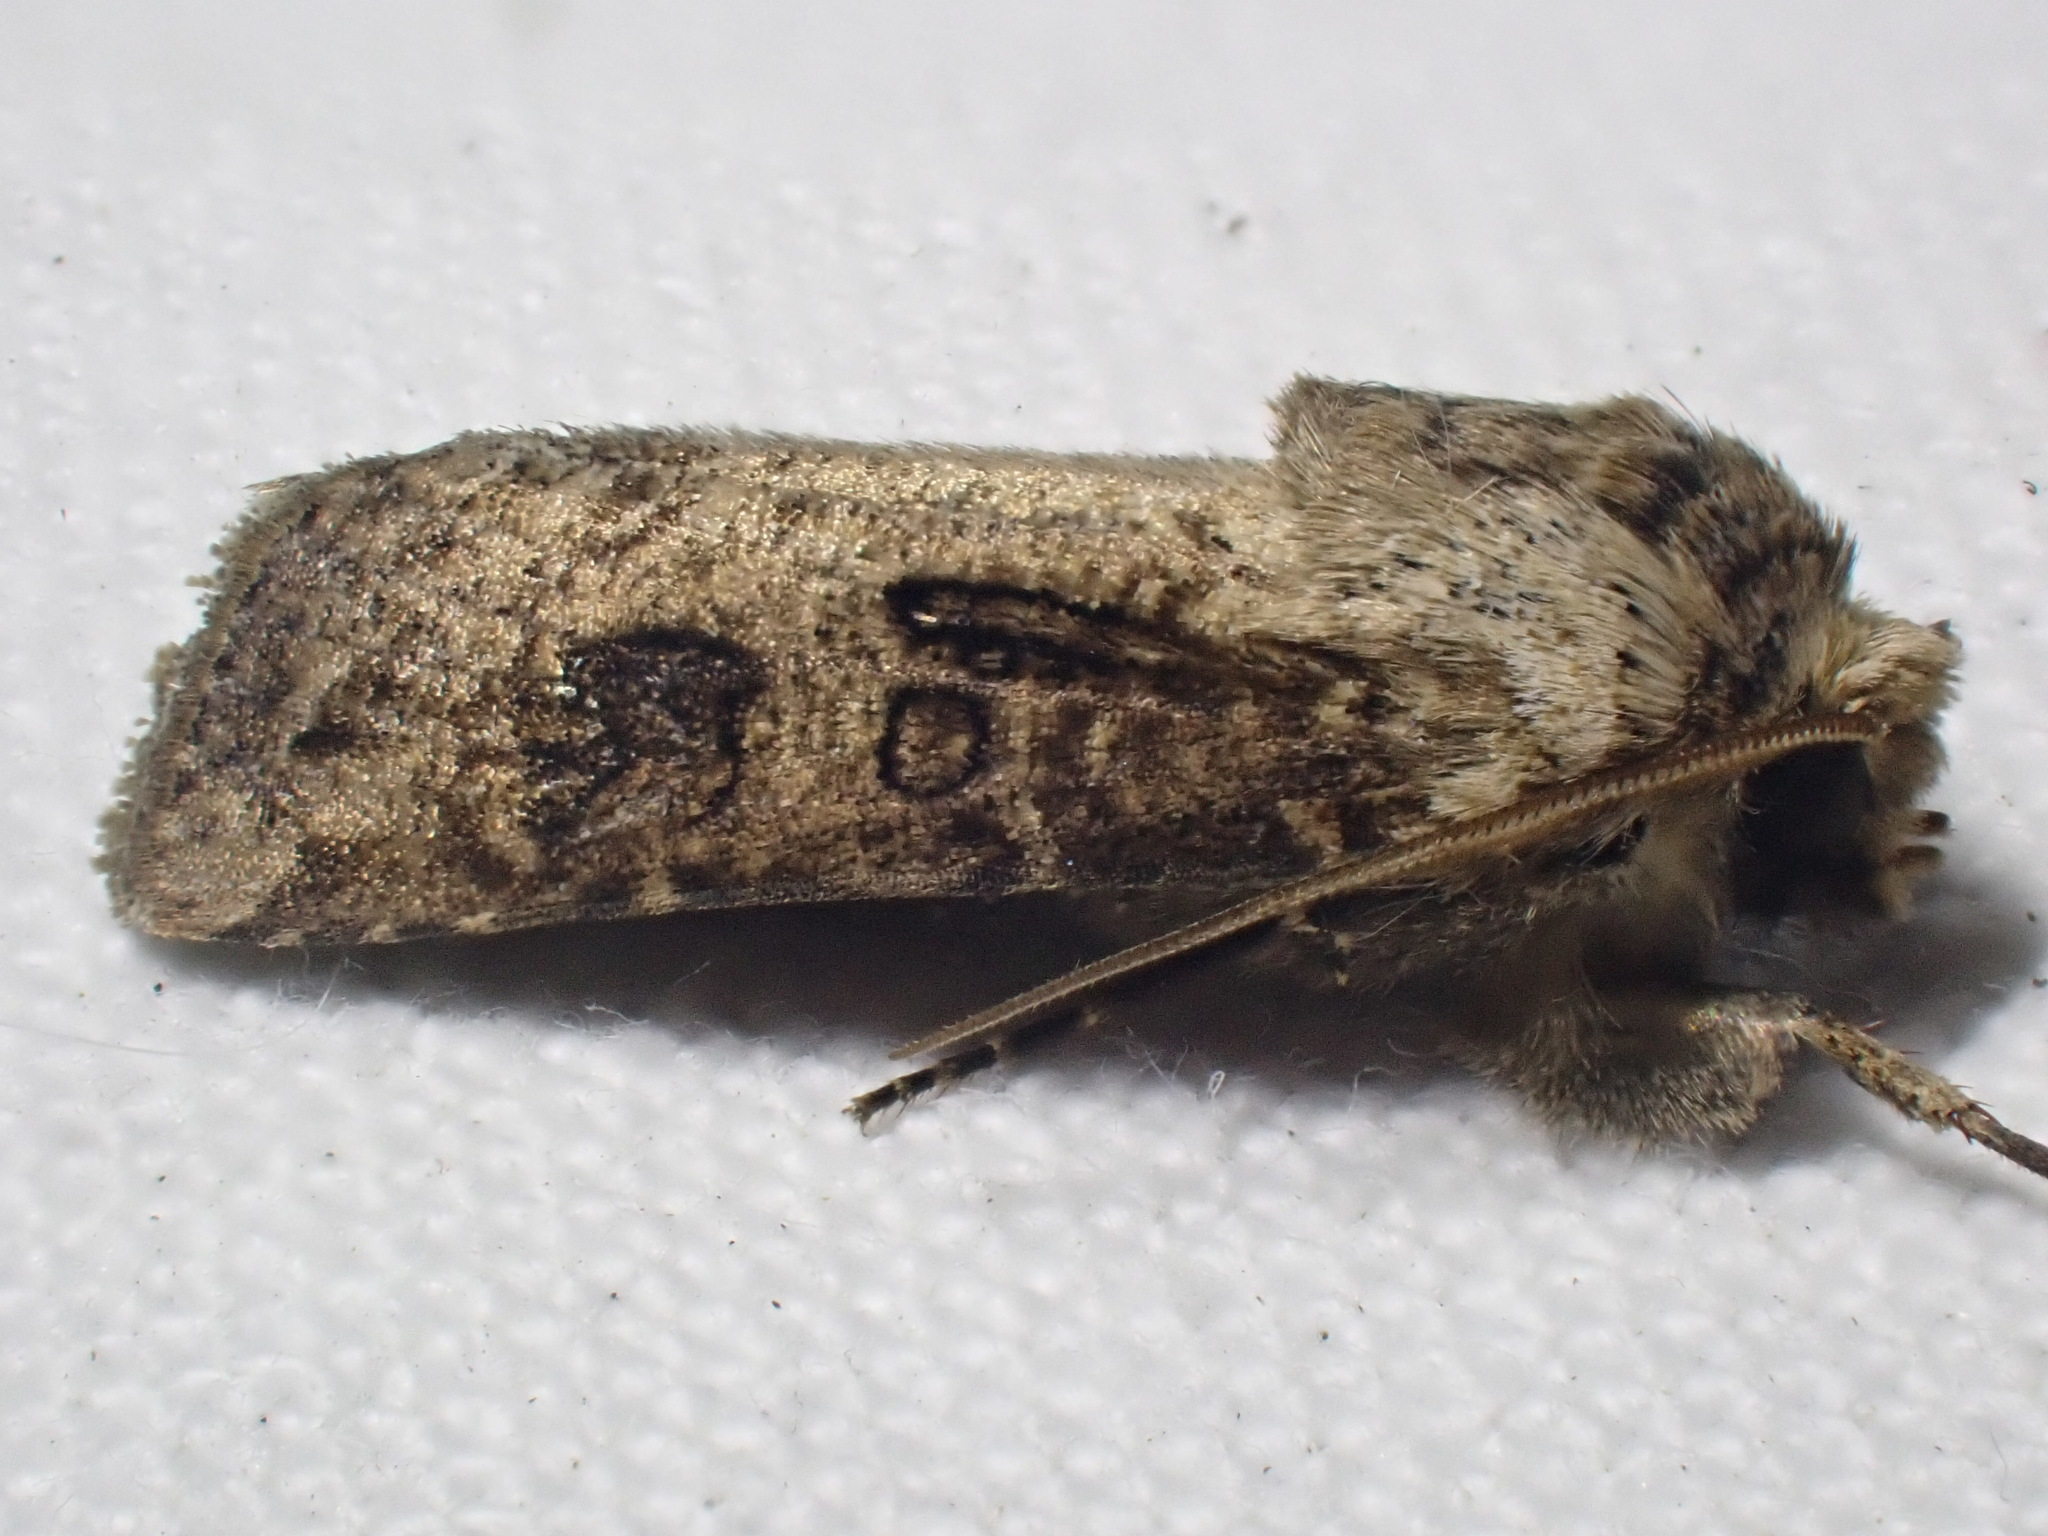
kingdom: Animalia
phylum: Arthropoda
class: Insecta
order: Lepidoptera
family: Noctuidae
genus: Agrotis
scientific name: Agrotis clavis
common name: Heart and club
